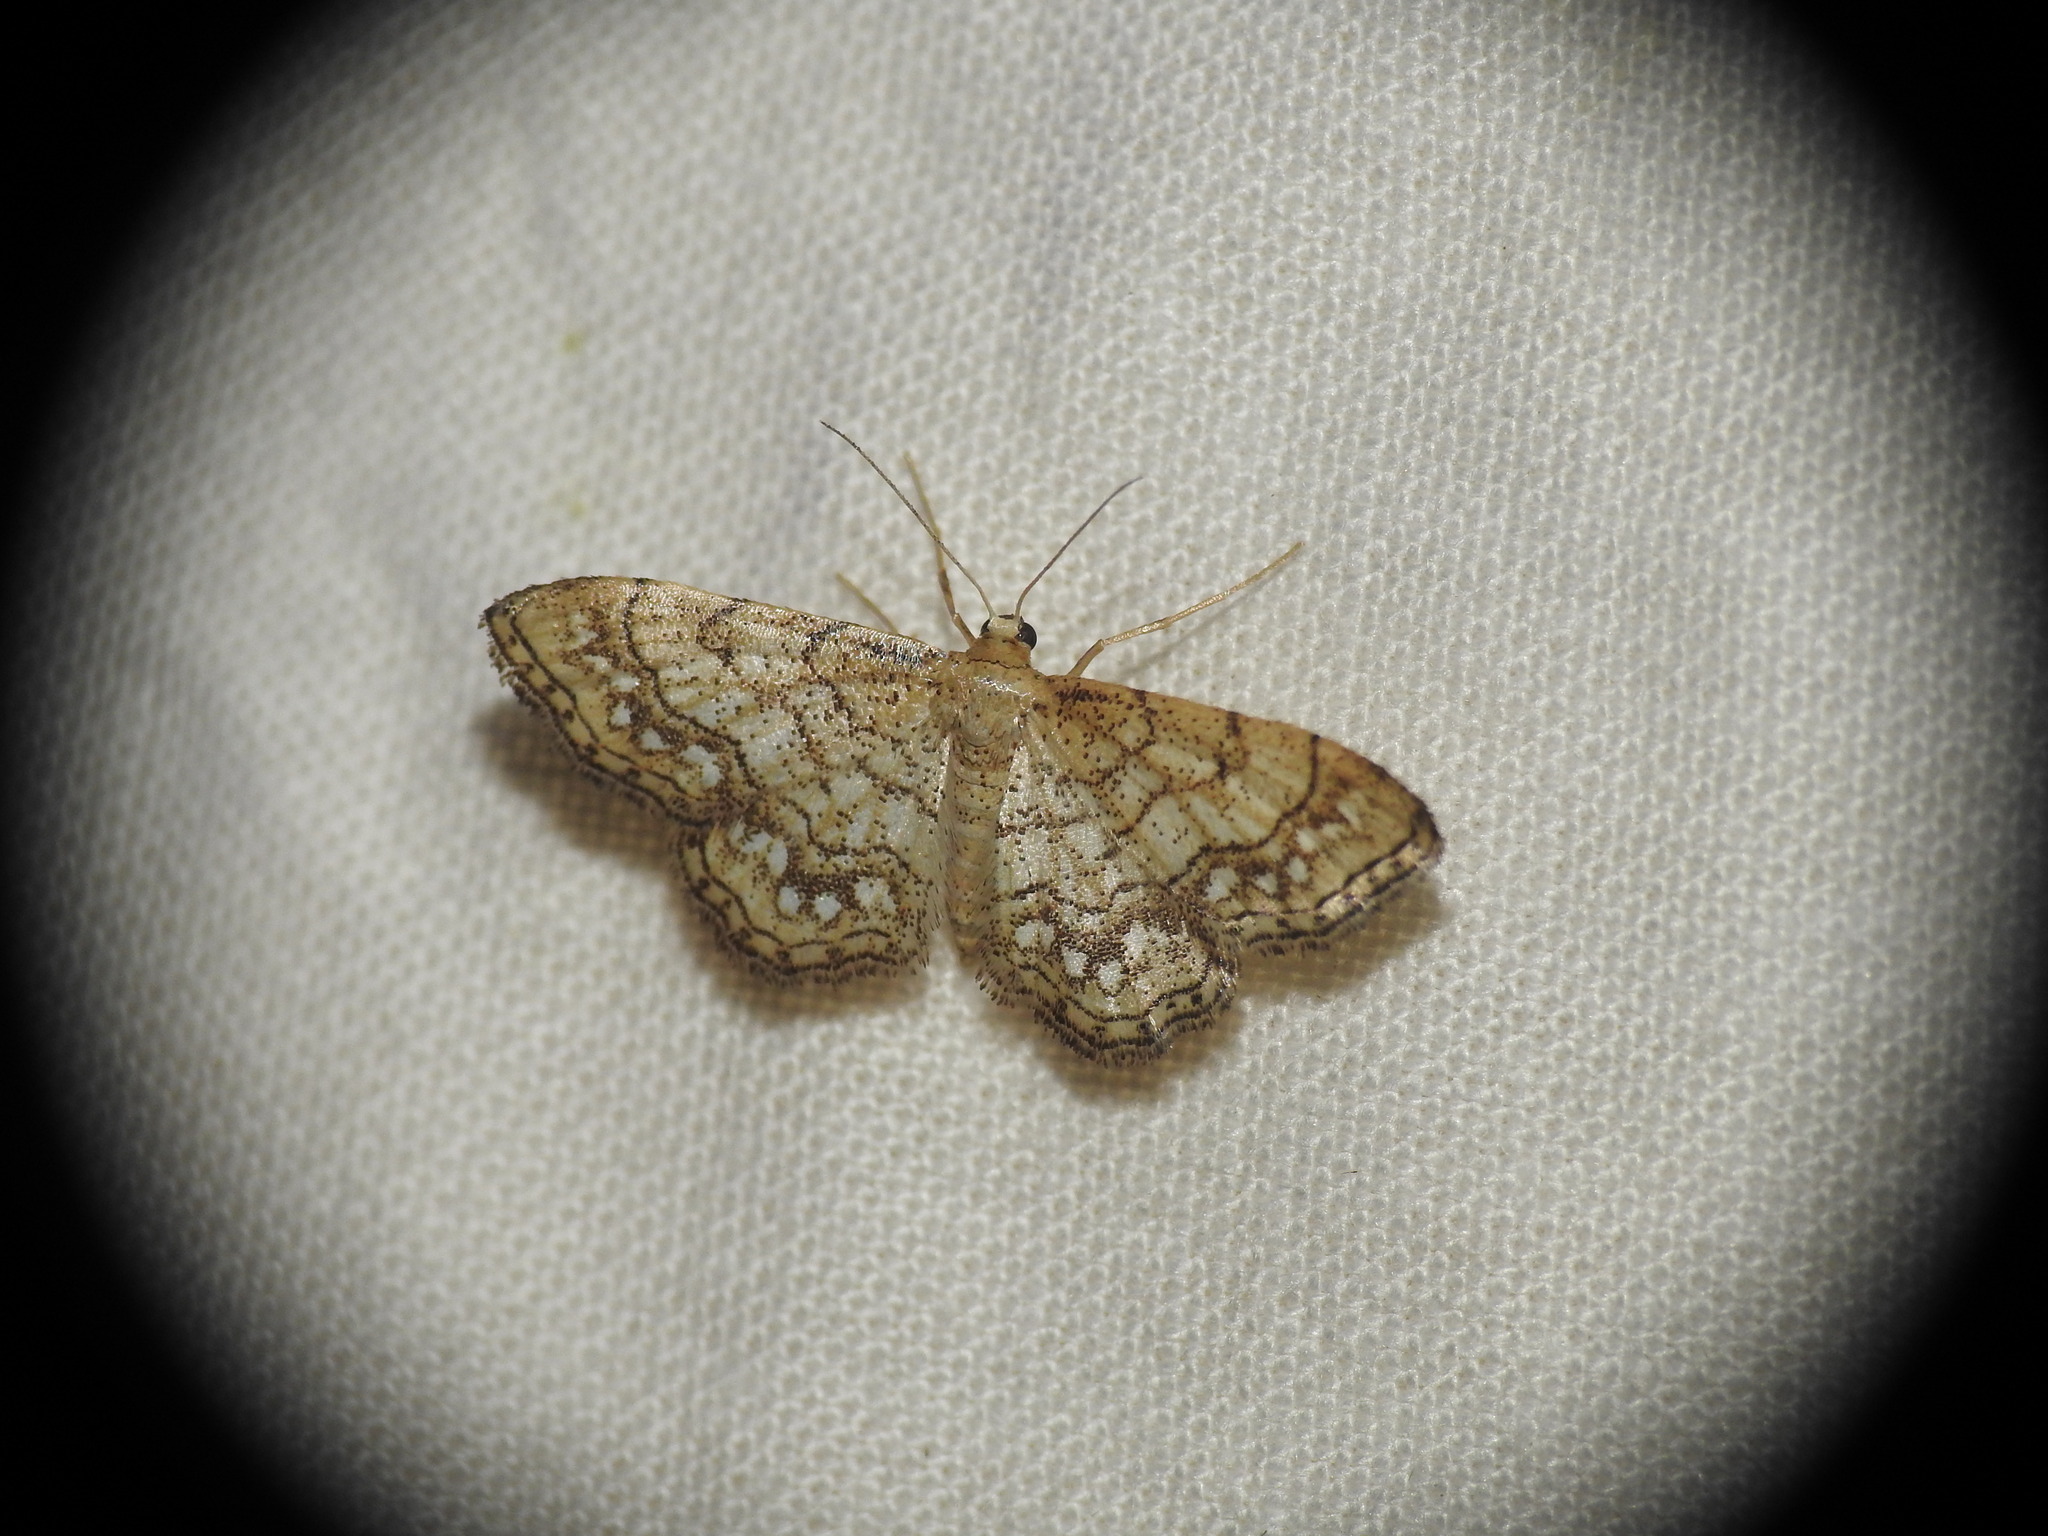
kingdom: Animalia
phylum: Arthropoda
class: Insecta
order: Lepidoptera
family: Geometridae
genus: Idaea
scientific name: Idaea moniliata
